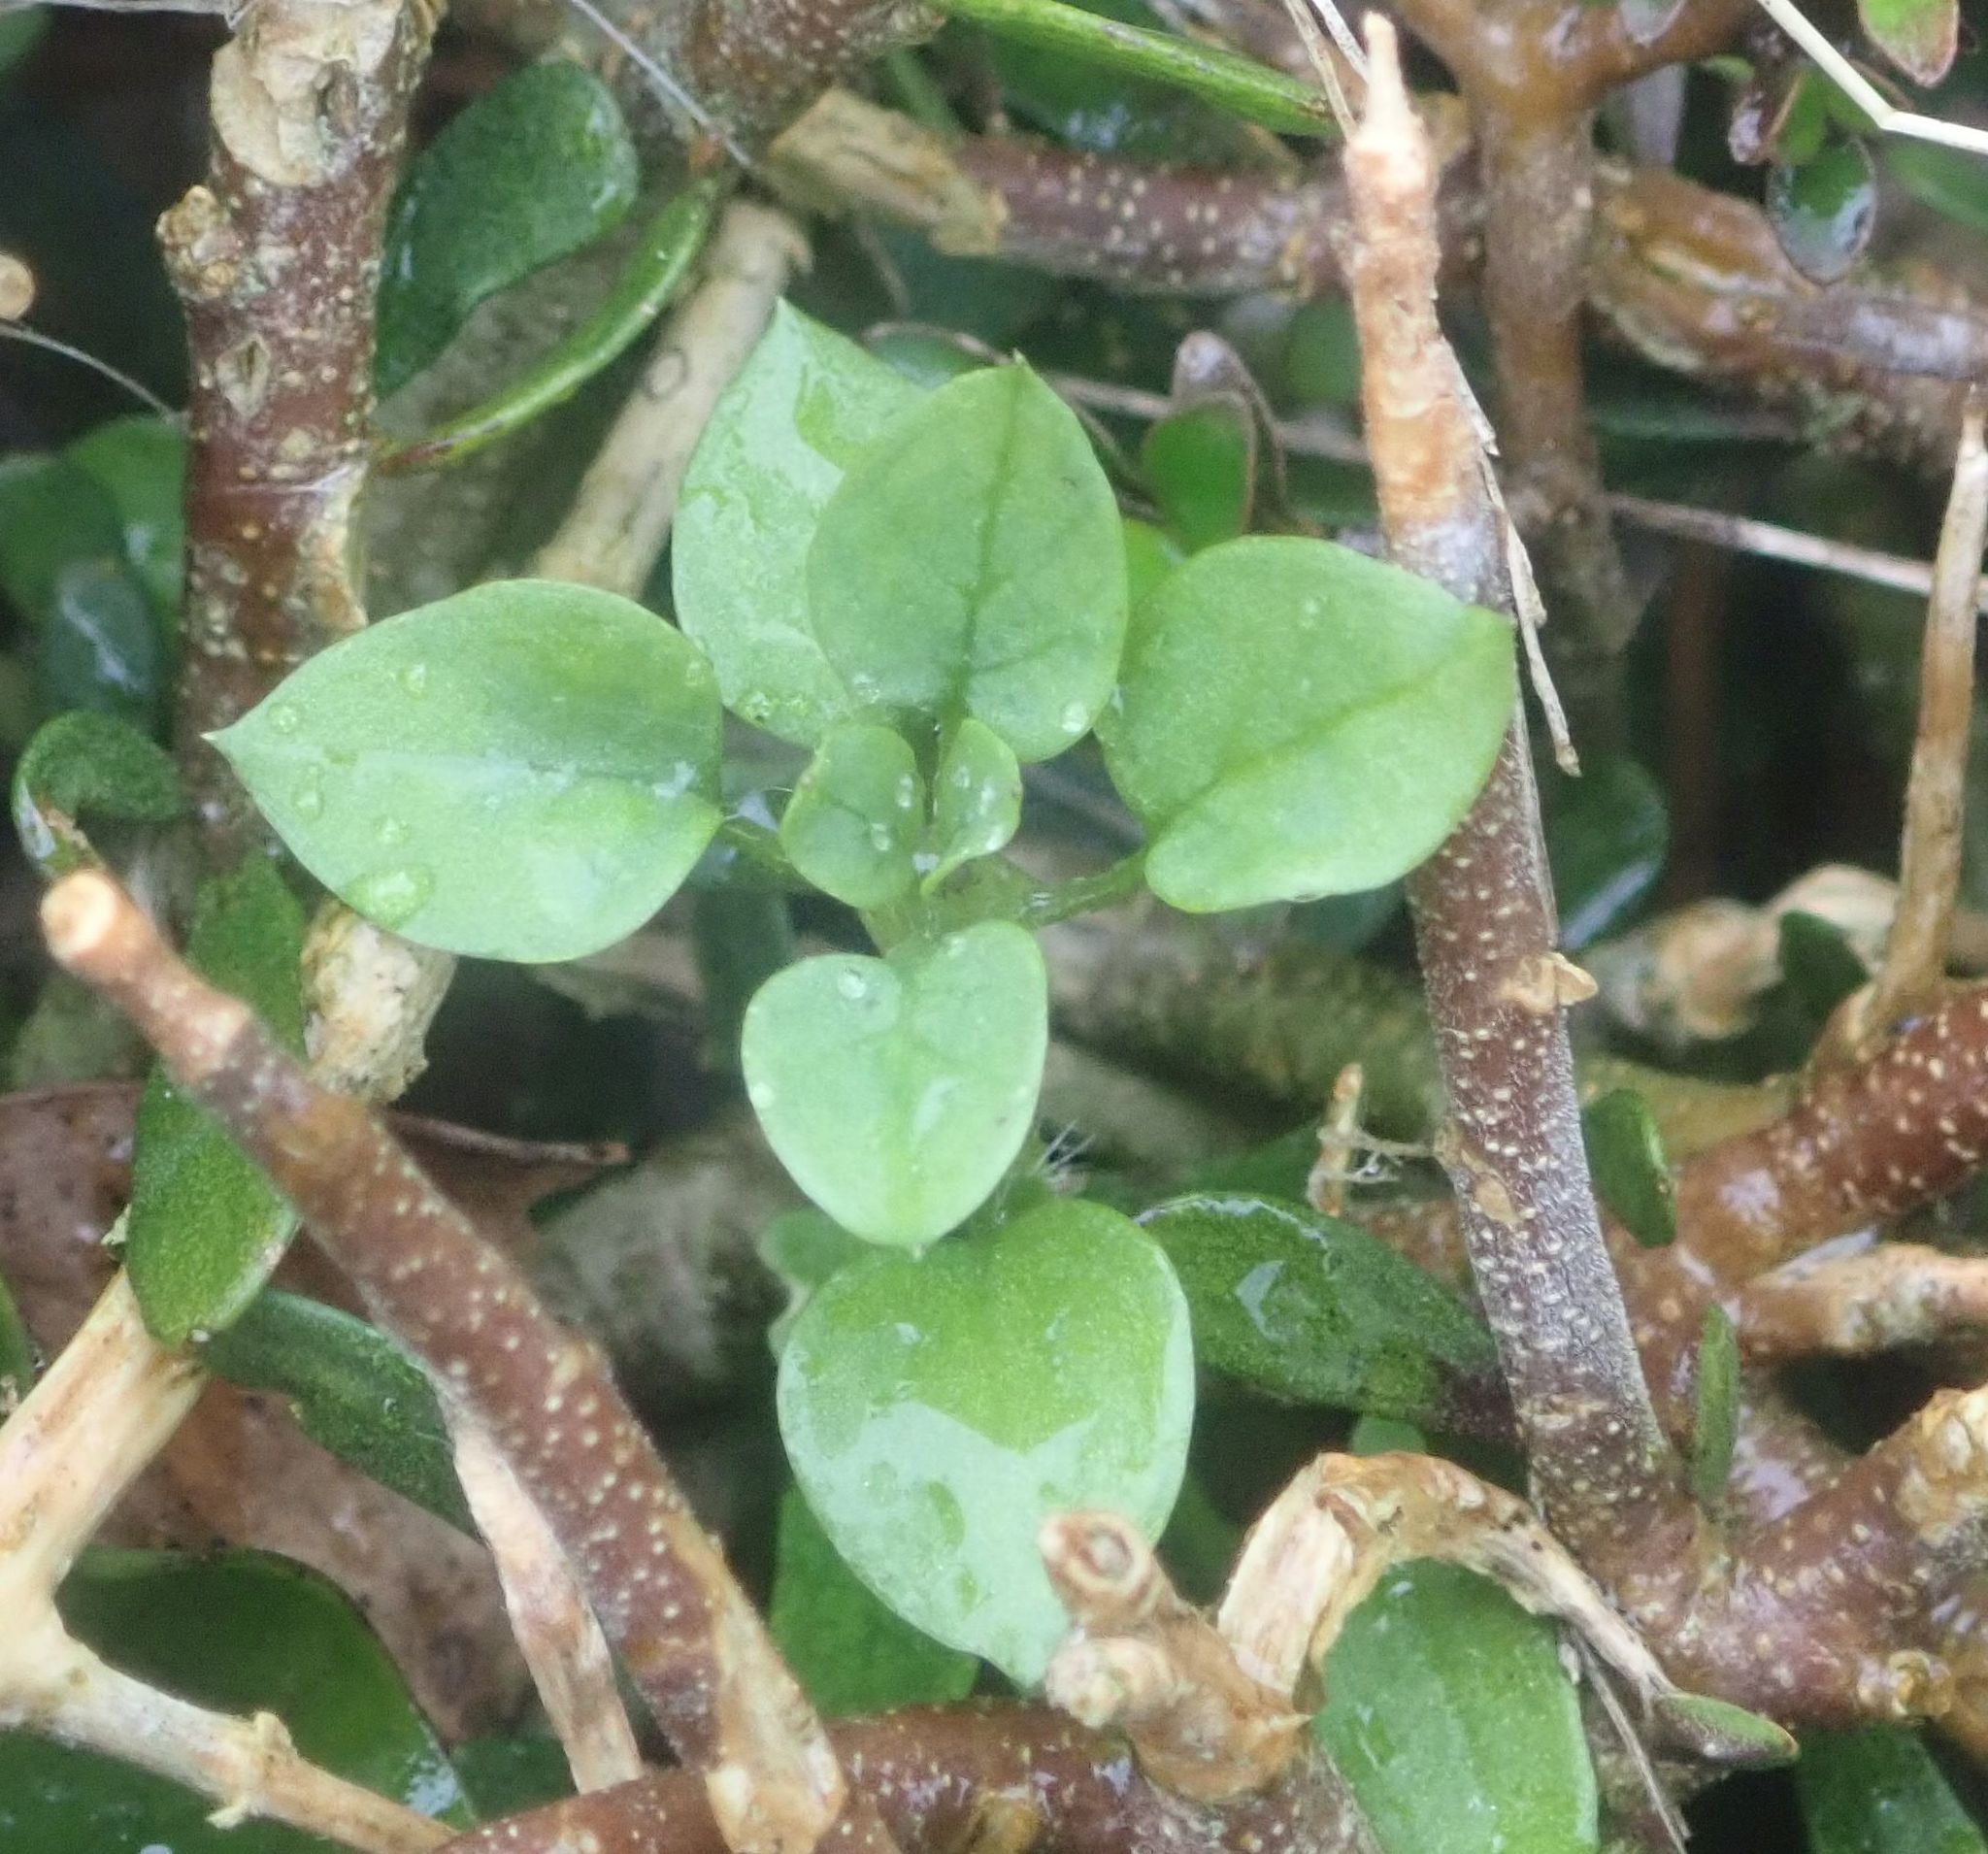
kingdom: Plantae
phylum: Tracheophyta
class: Magnoliopsida
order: Caryophyllales
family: Caryophyllaceae
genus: Stellaria
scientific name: Stellaria media
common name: Common chickweed
